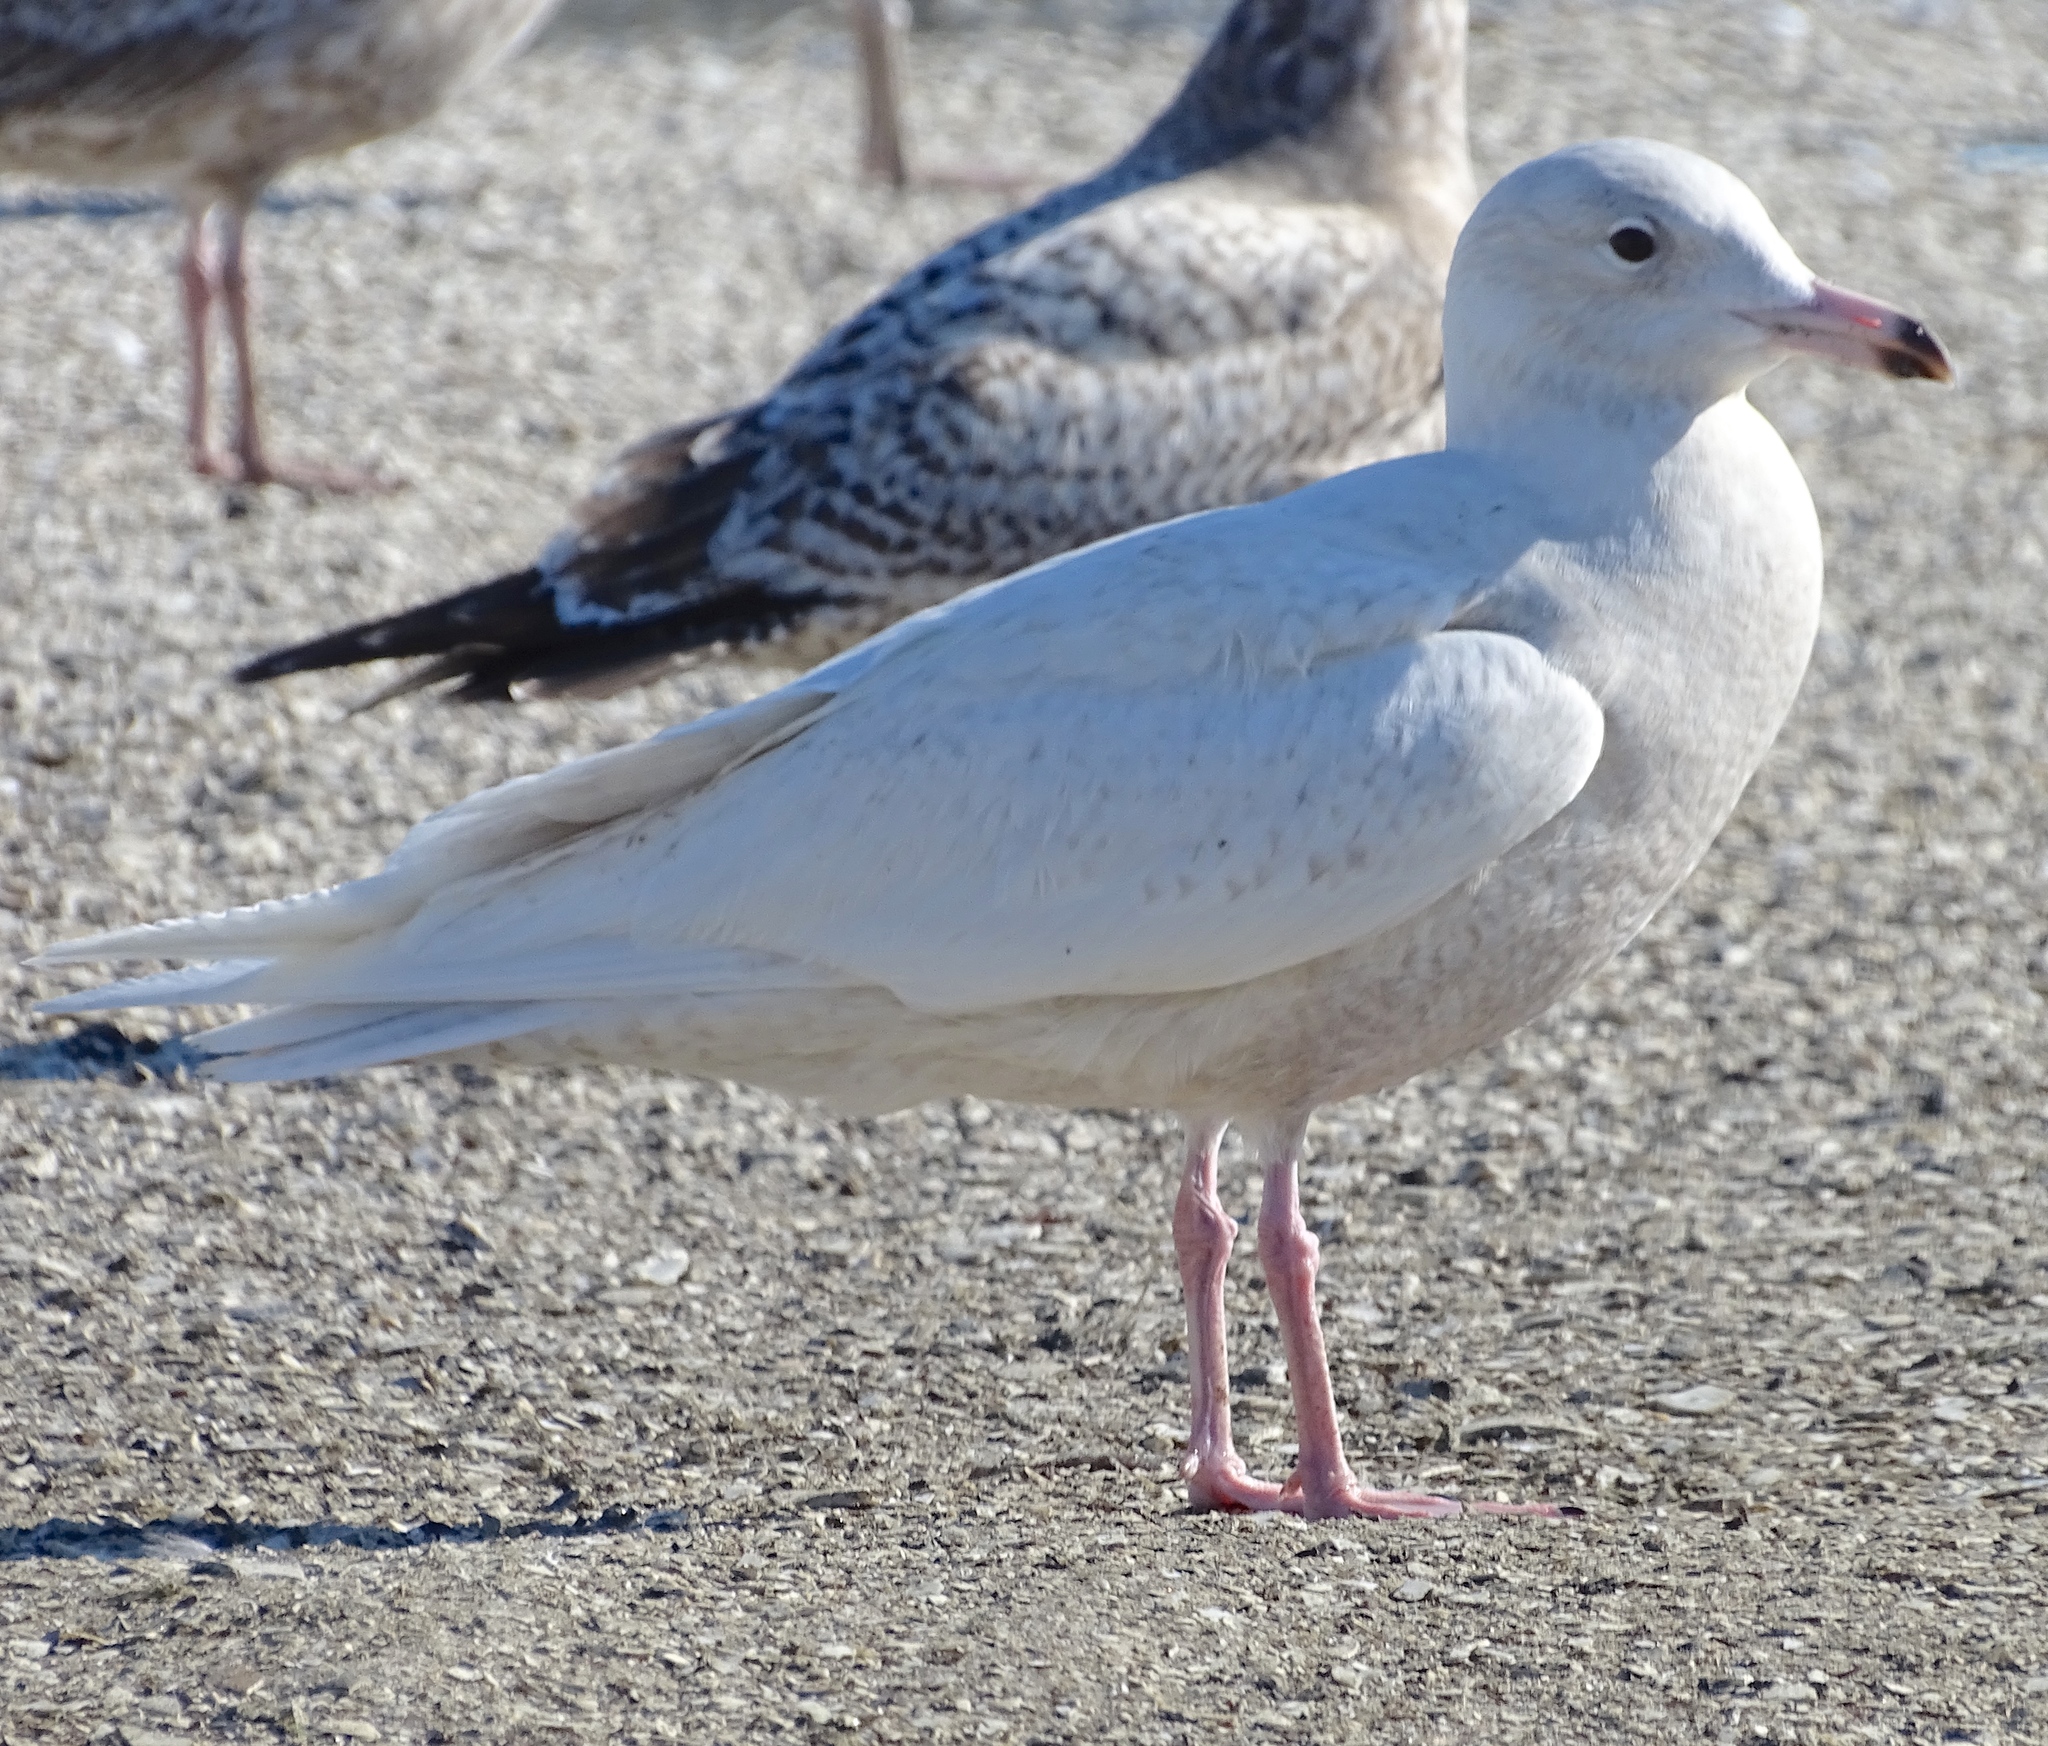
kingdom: Animalia
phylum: Chordata
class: Aves
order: Charadriiformes
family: Laridae
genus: Larus
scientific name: Larus hyperboreus
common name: Glaucous gull
